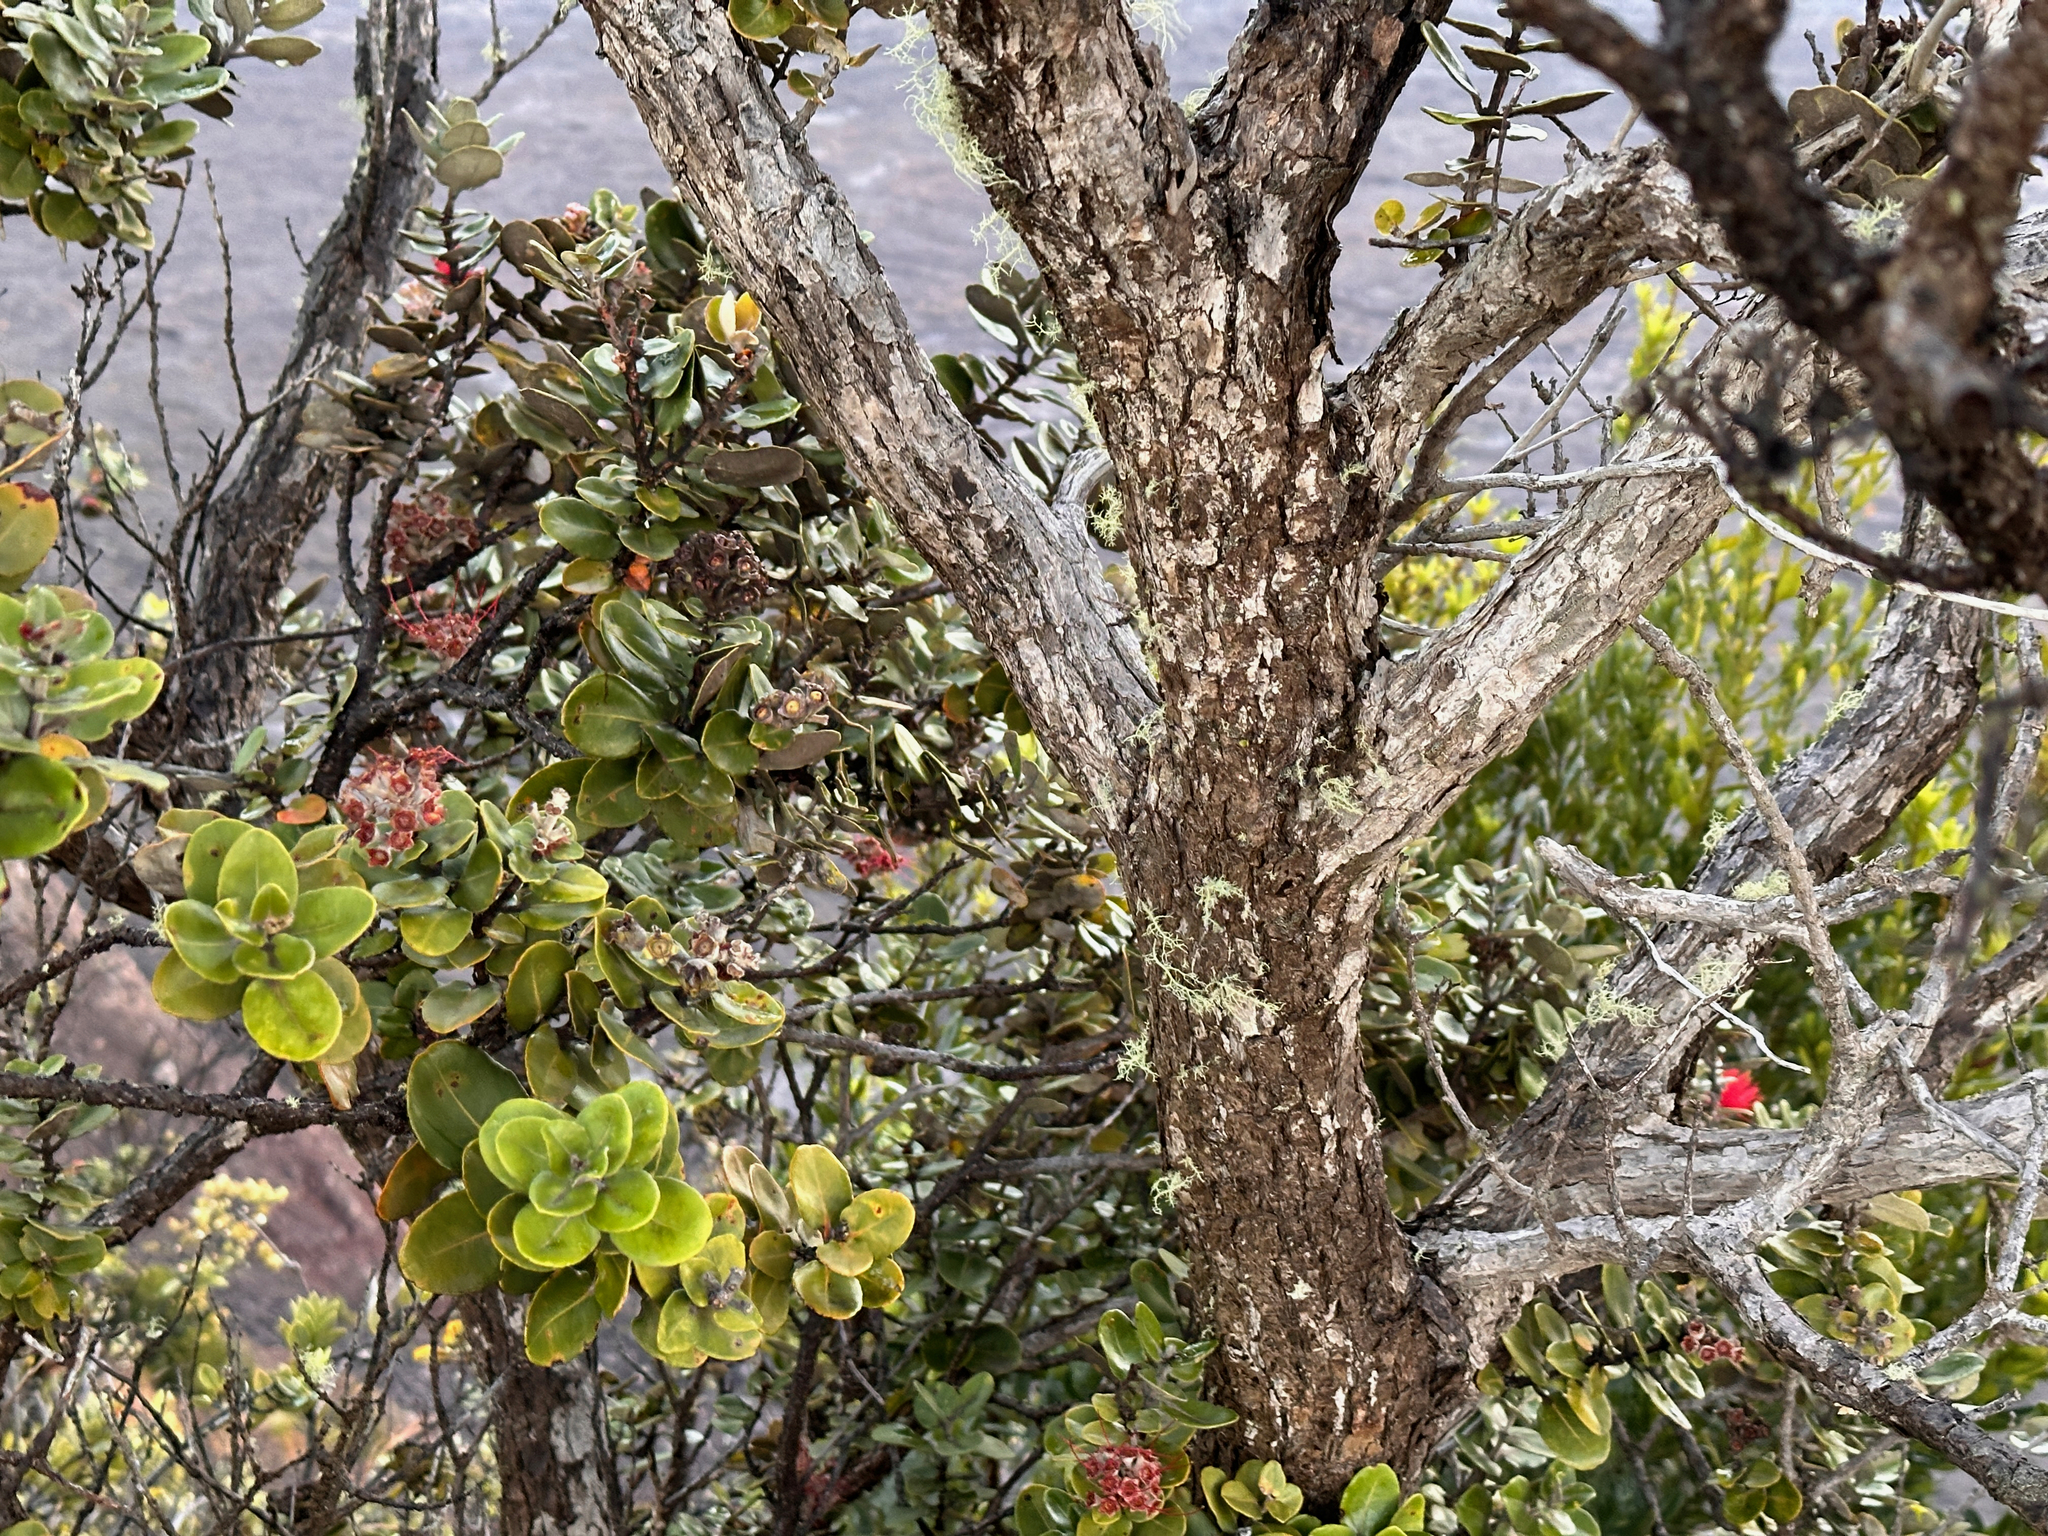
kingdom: Plantae
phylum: Tracheophyta
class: Magnoliopsida
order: Myrtales
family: Myrtaceae
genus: Metrosideros
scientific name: Metrosideros polymorpha
